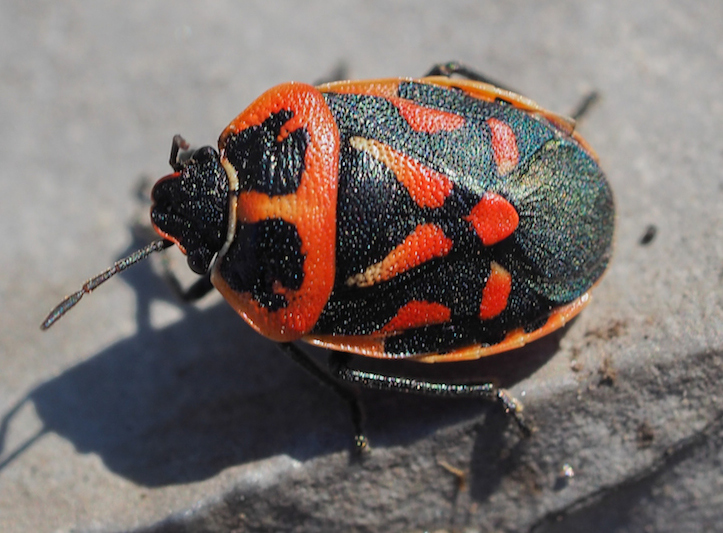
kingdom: Animalia
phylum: Arthropoda
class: Insecta
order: Hemiptera
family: Pentatomidae
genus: Eurydema
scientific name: Eurydema fieberi
